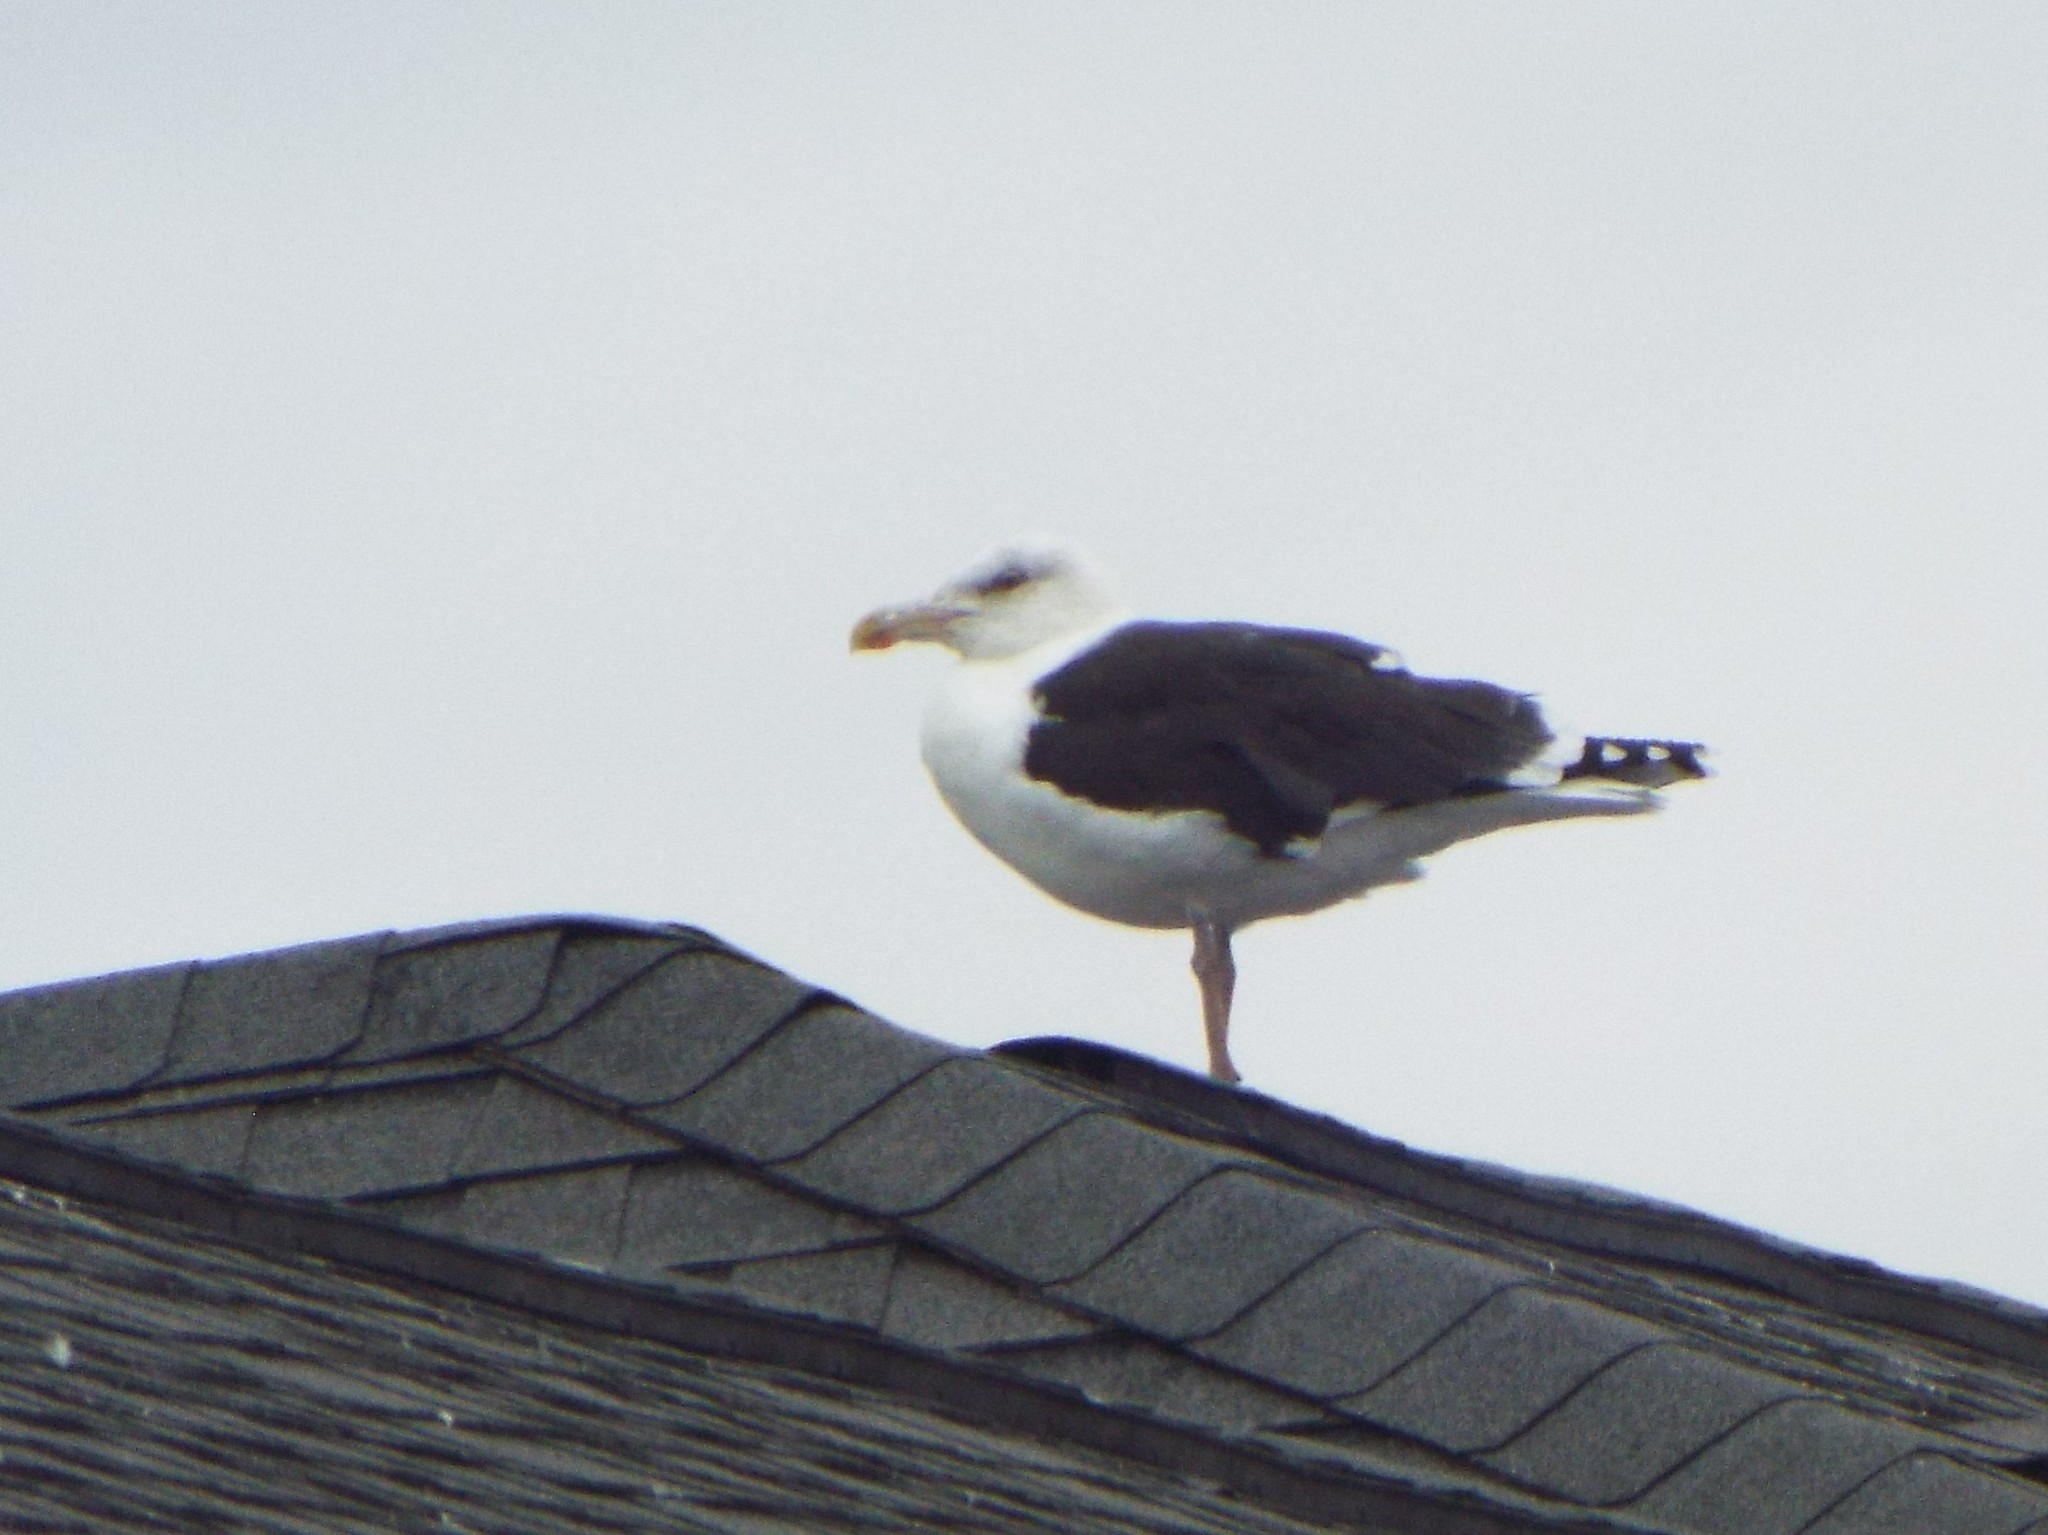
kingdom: Animalia
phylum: Chordata
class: Aves
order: Charadriiformes
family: Laridae
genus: Larus
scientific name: Larus marinus
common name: Great black-backed gull
